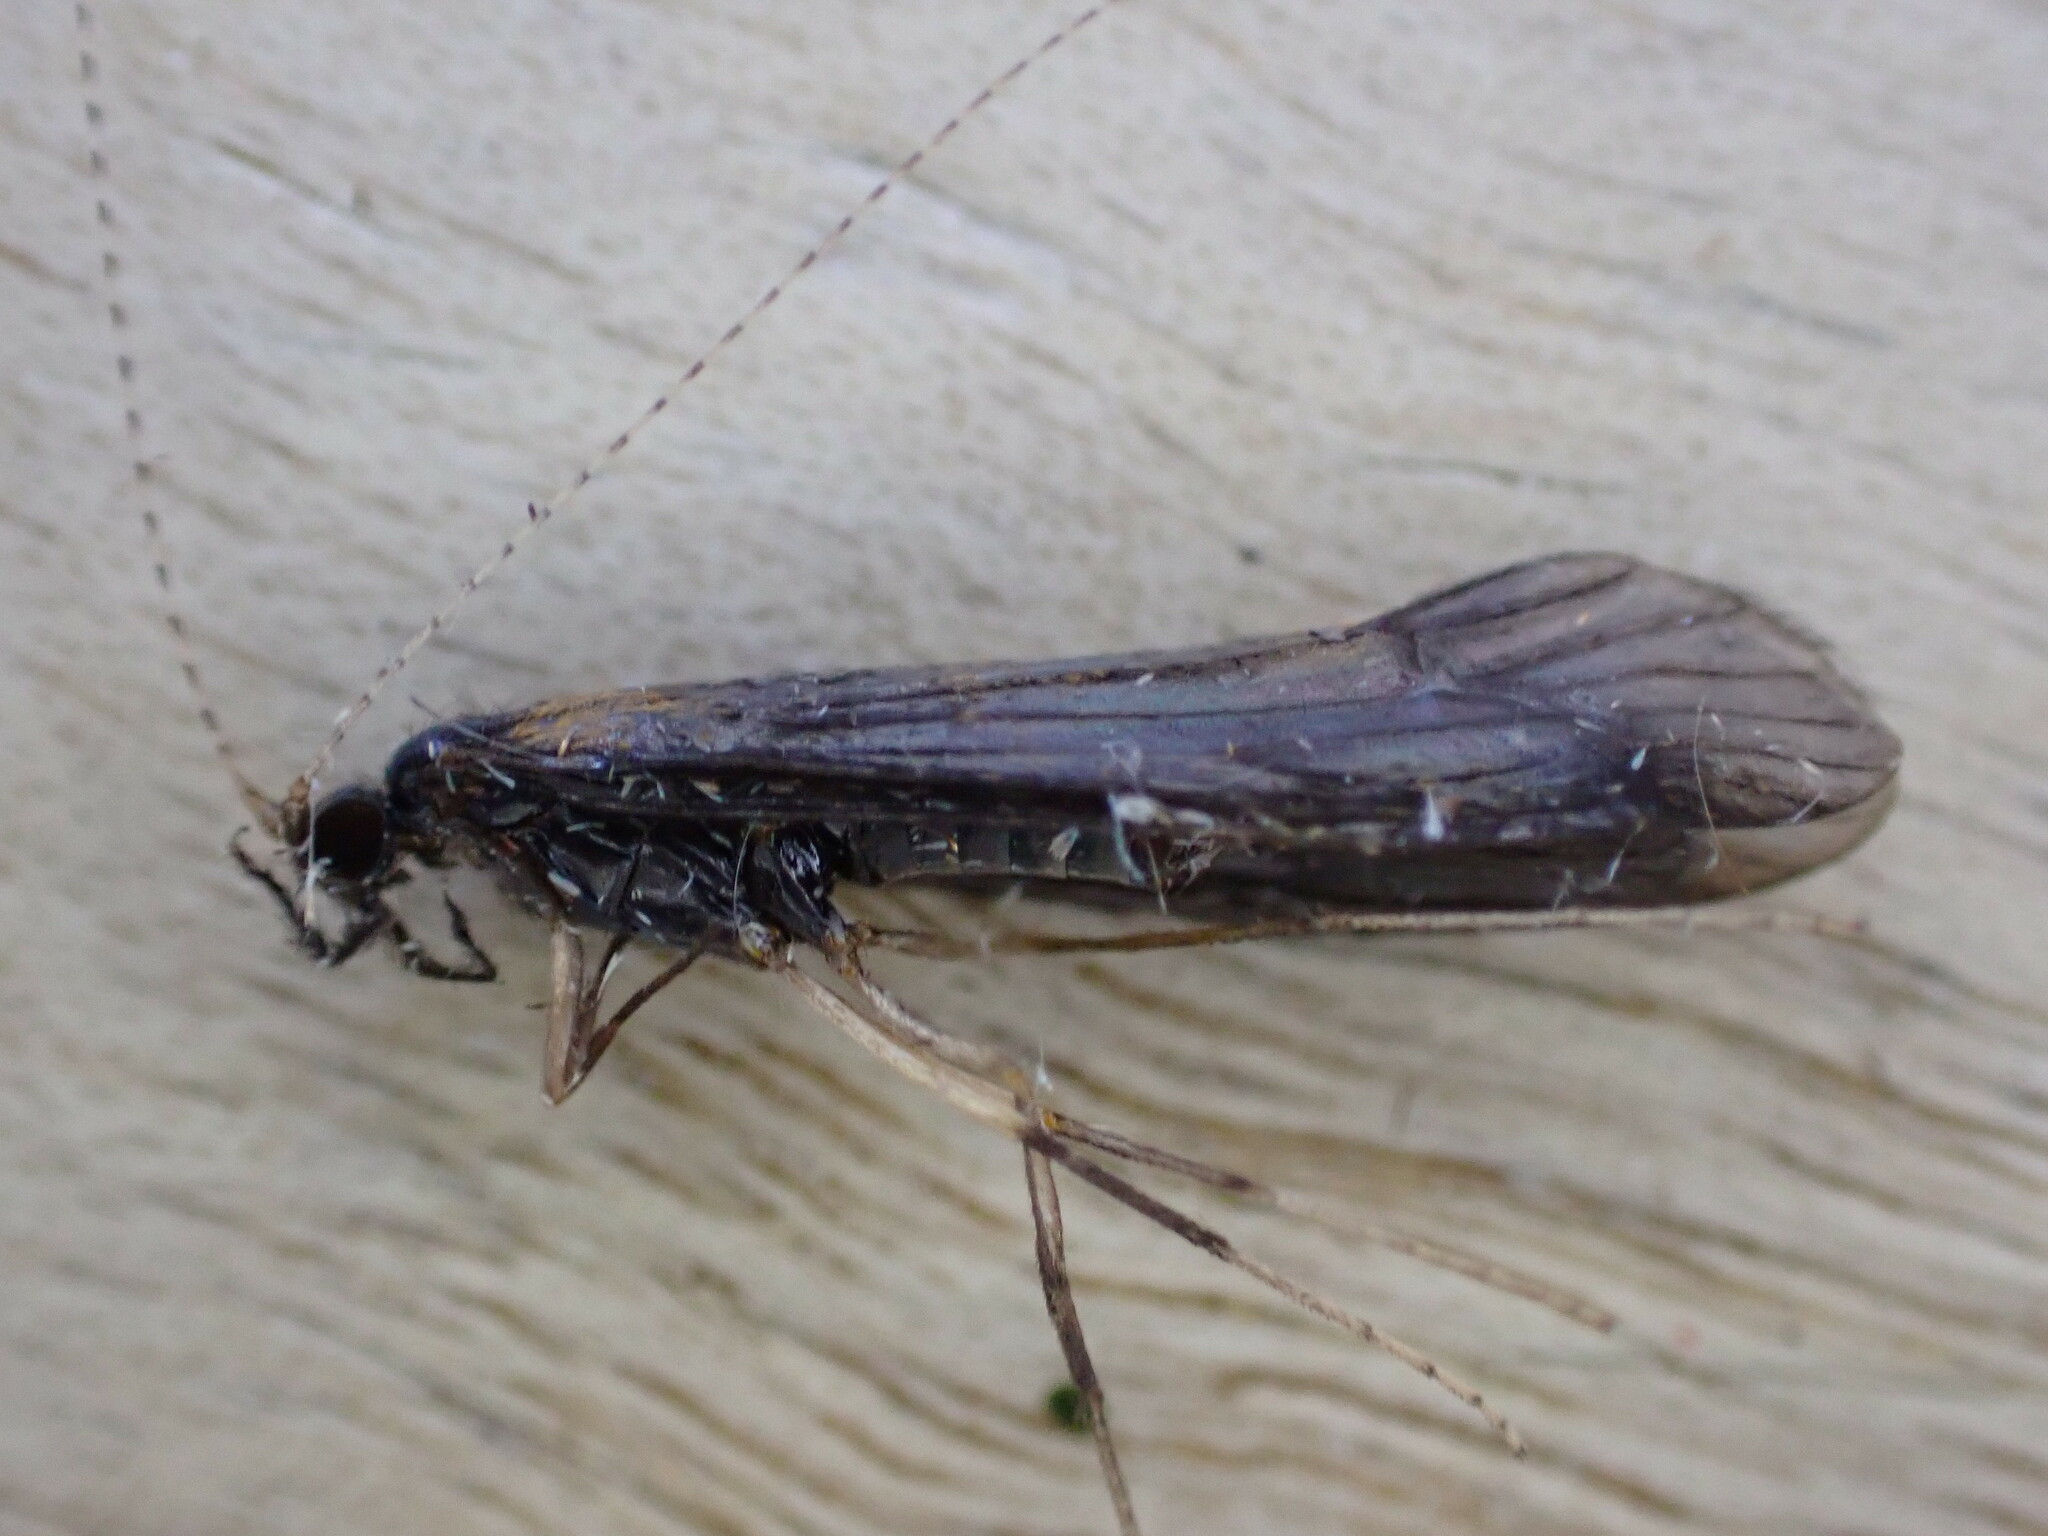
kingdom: Animalia
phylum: Arthropoda
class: Insecta
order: Trichoptera
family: Leptoceridae
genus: Mystacides
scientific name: Mystacides longicornis
